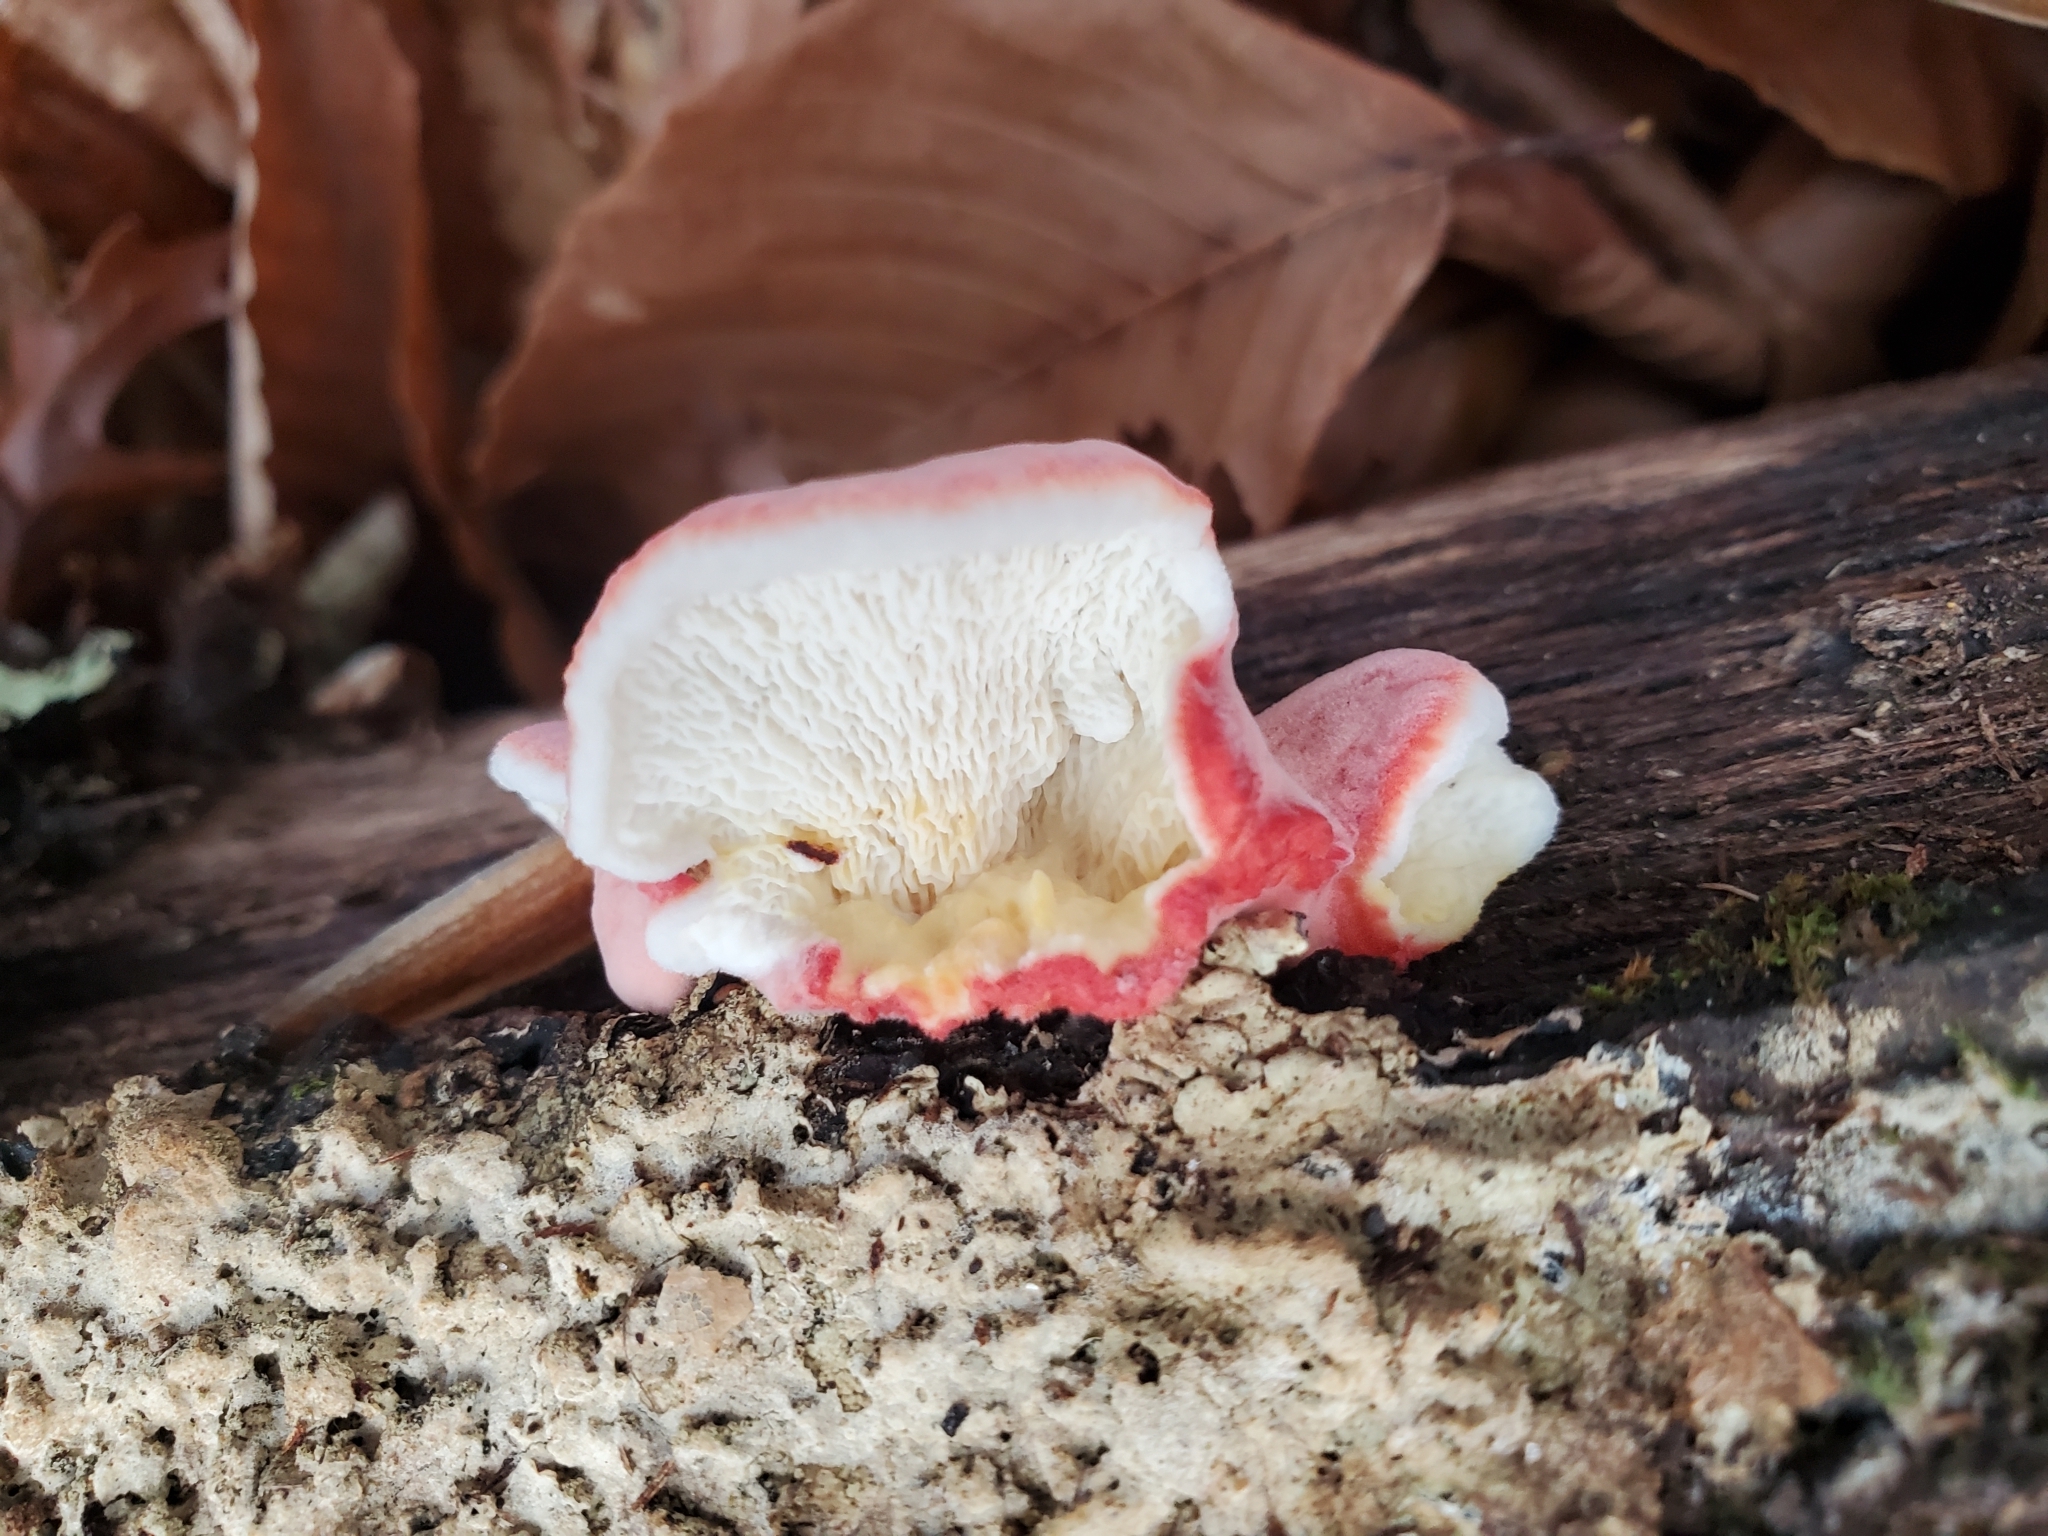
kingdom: Fungi
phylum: Basidiomycota
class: Agaricomycetes
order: Polyporales
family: Irpicaceae
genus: Byssomerulius
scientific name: Byssomerulius incarnatus
